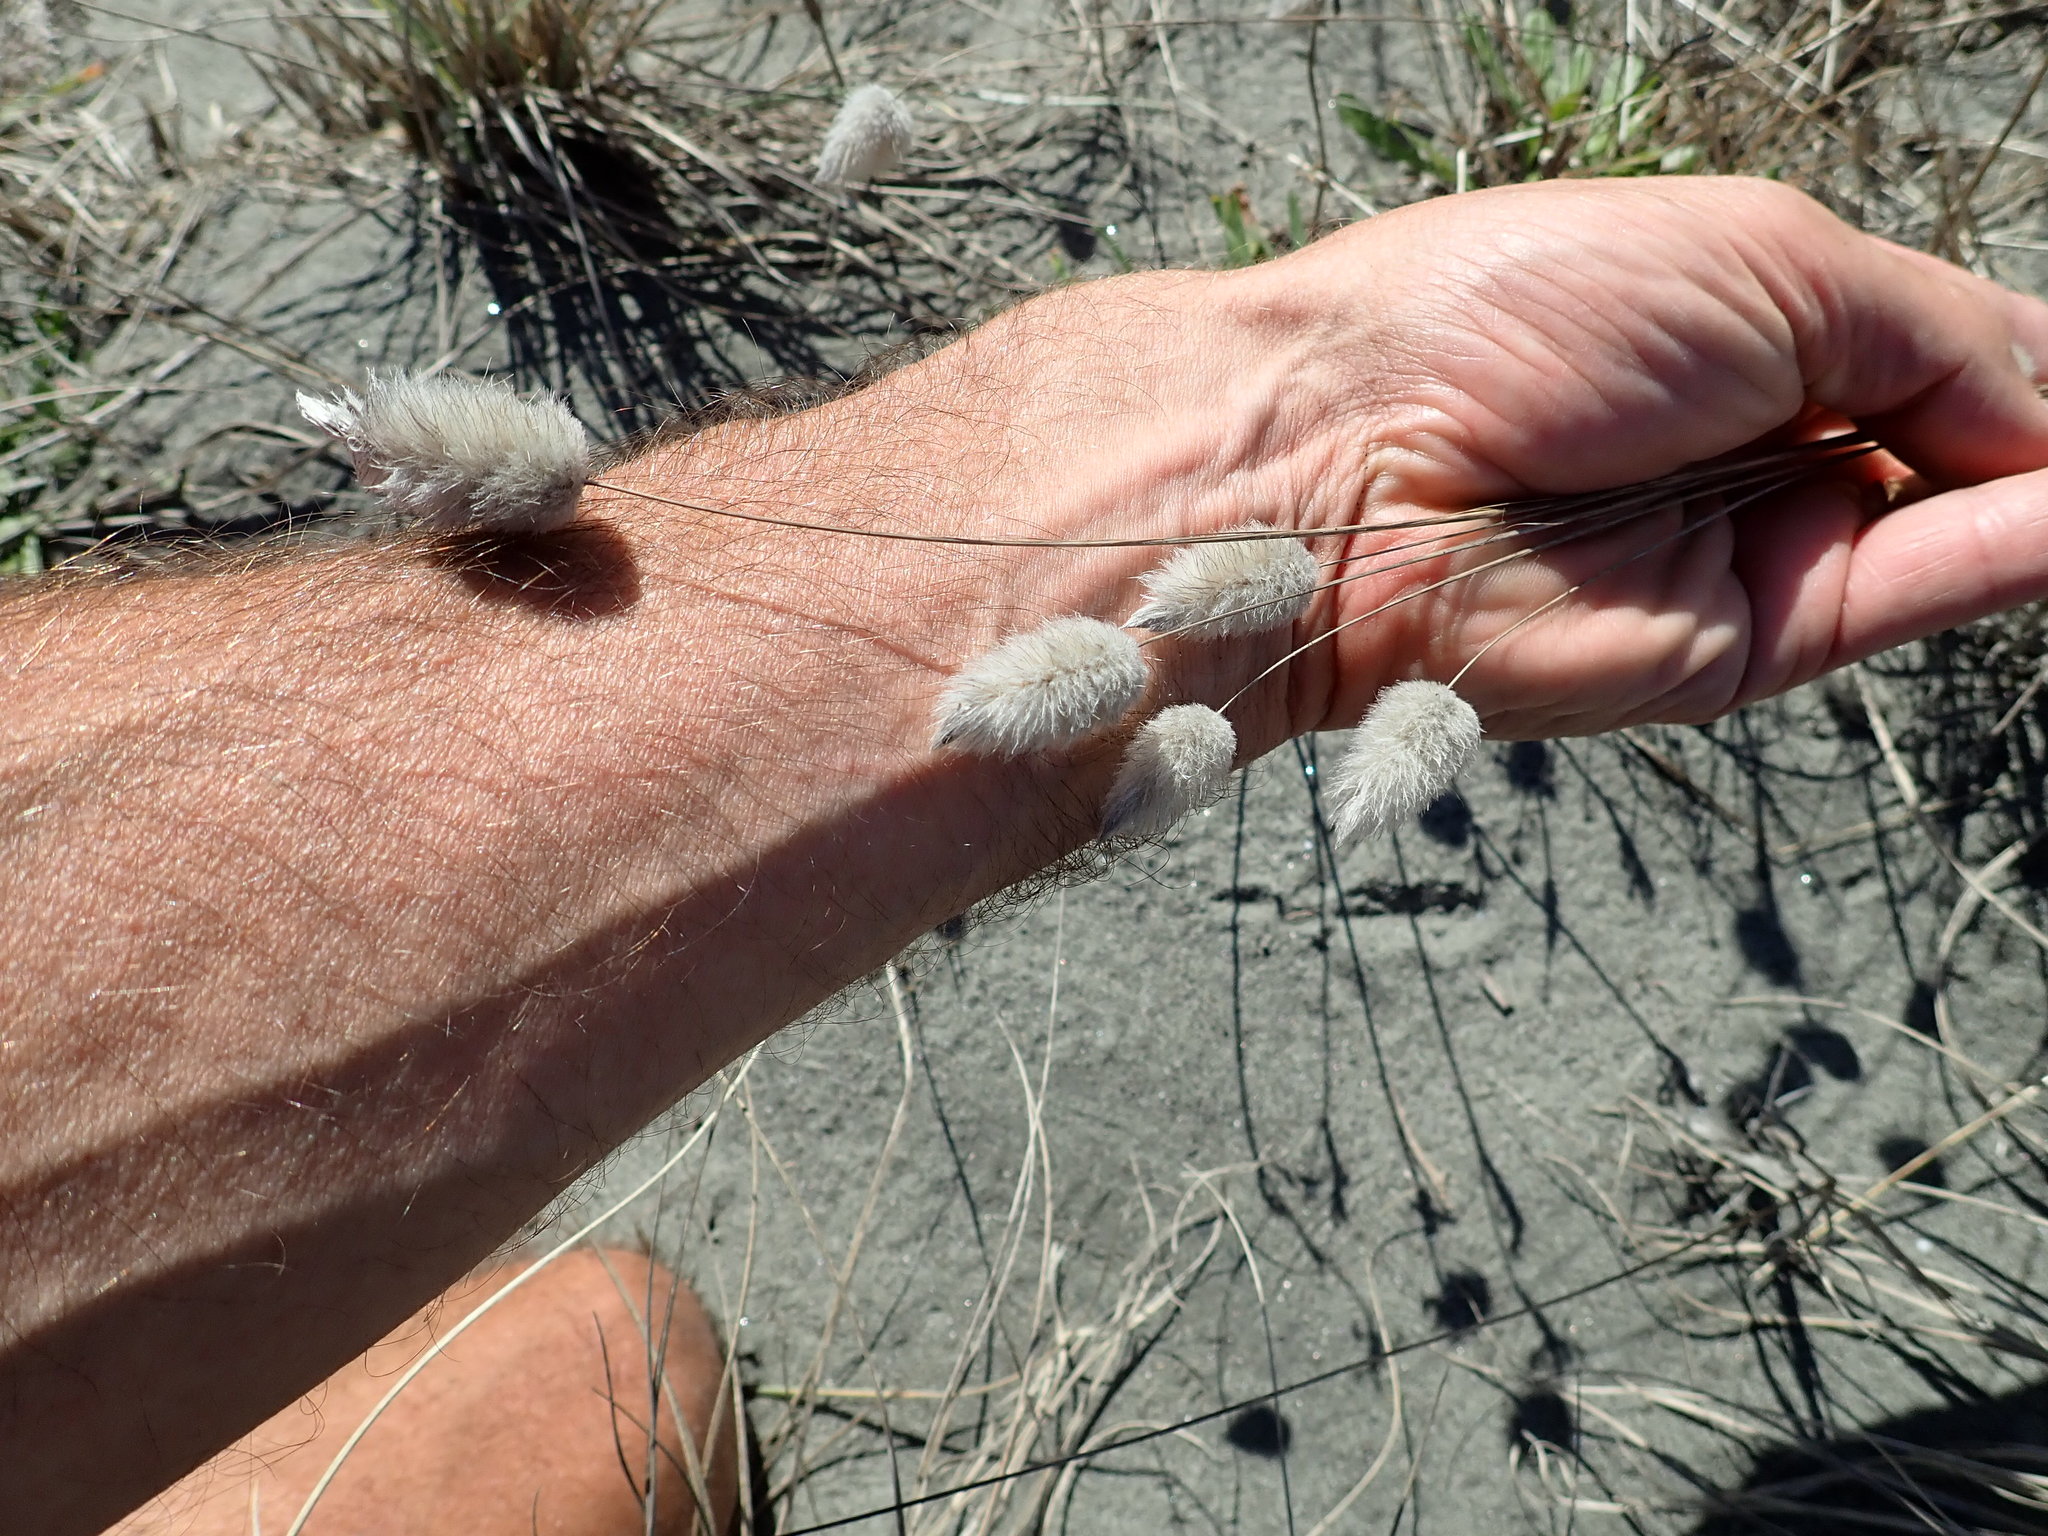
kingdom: Plantae
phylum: Tracheophyta
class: Liliopsida
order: Poales
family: Poaceae
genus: Lagurus
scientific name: Lagurus ovatus
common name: Hare's-tail
